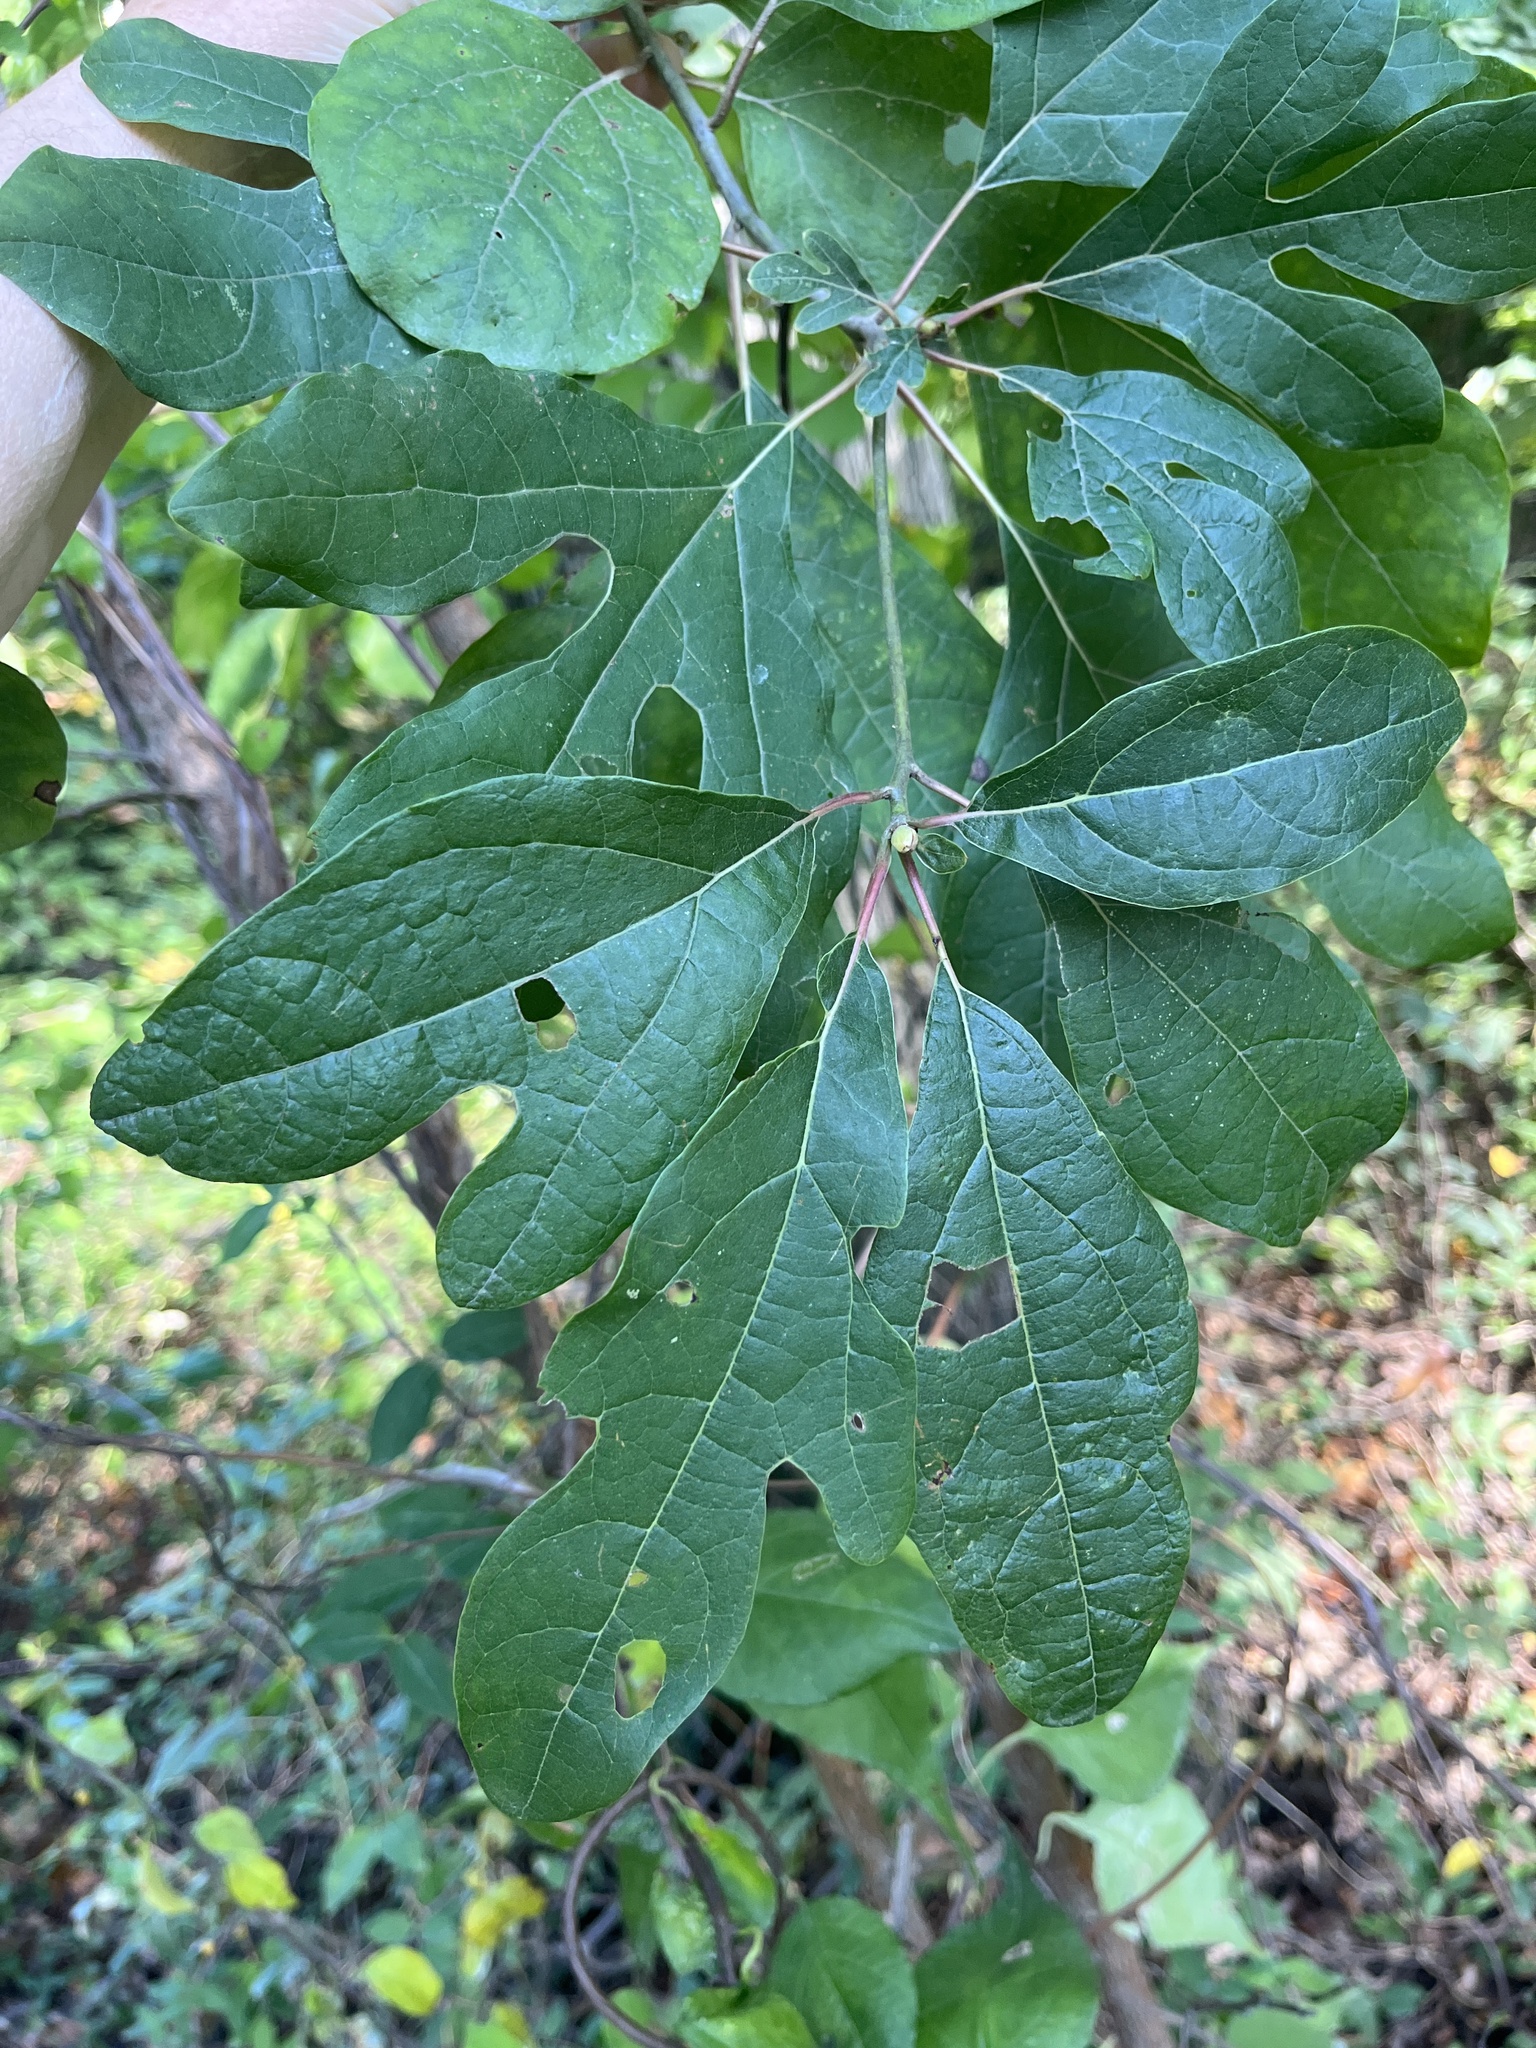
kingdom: Plantae
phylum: Tracheophyta
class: Magnoliopsida
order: Laurales
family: Lauraceae
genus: Sassafras
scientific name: Sassafras albidum
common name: Sassafras
